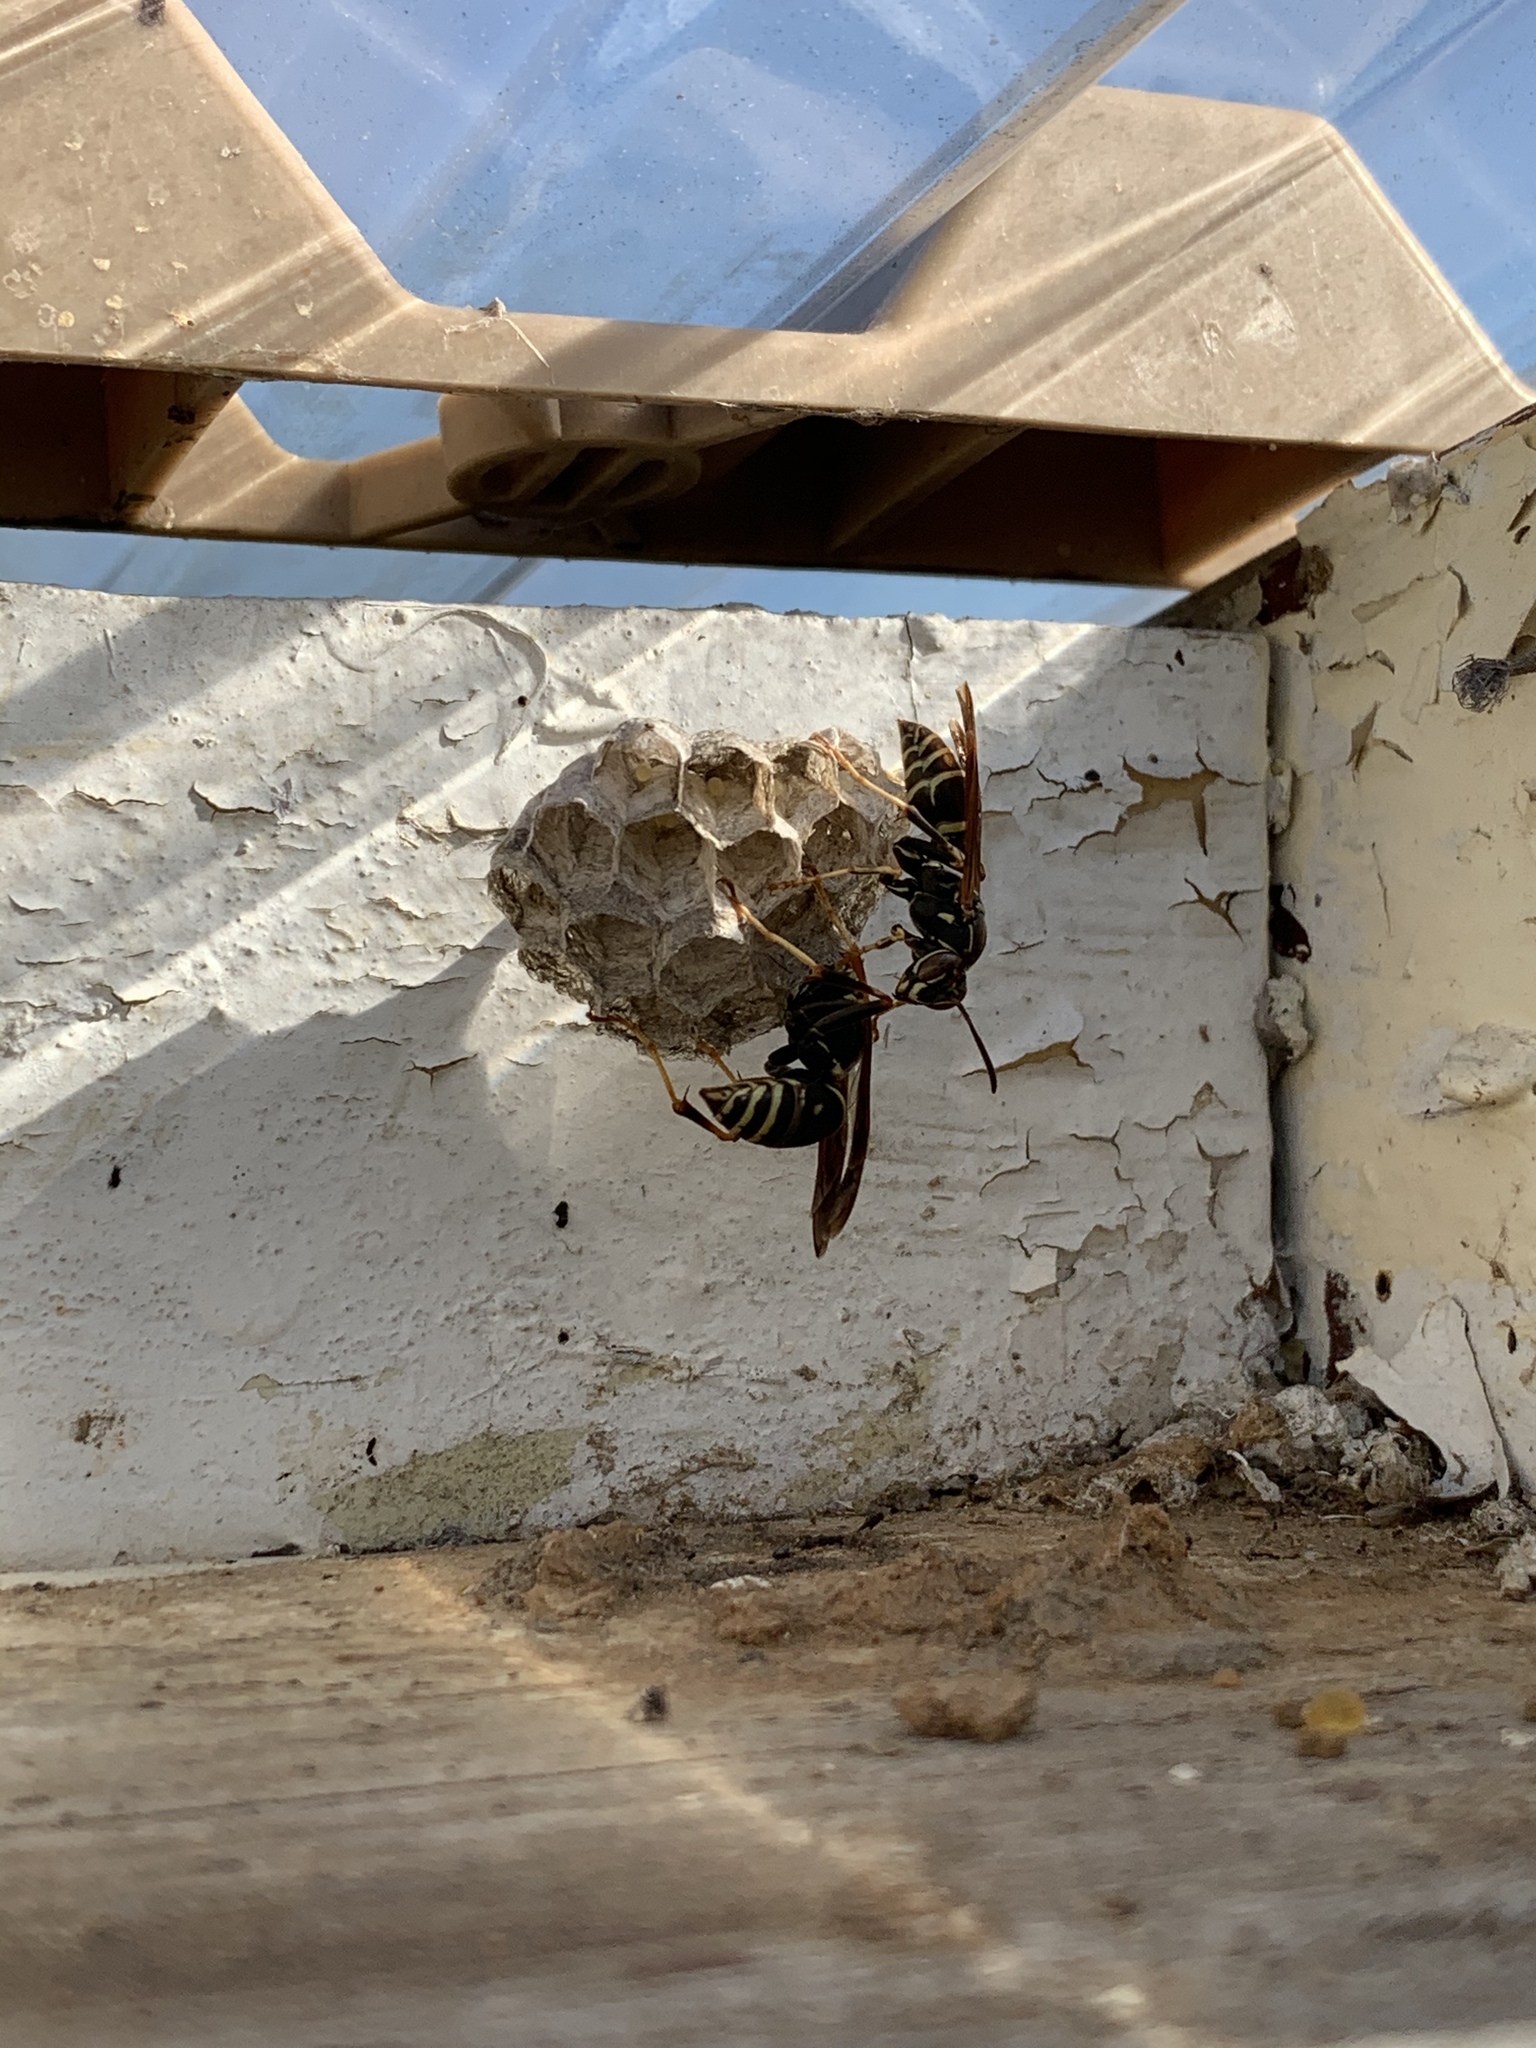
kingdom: Animalia
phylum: Arthropoda
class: Insecta
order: Hymenoptera
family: Eumenidae
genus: Polistes
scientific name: Polistes fuscatus
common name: Dark paper wasp
